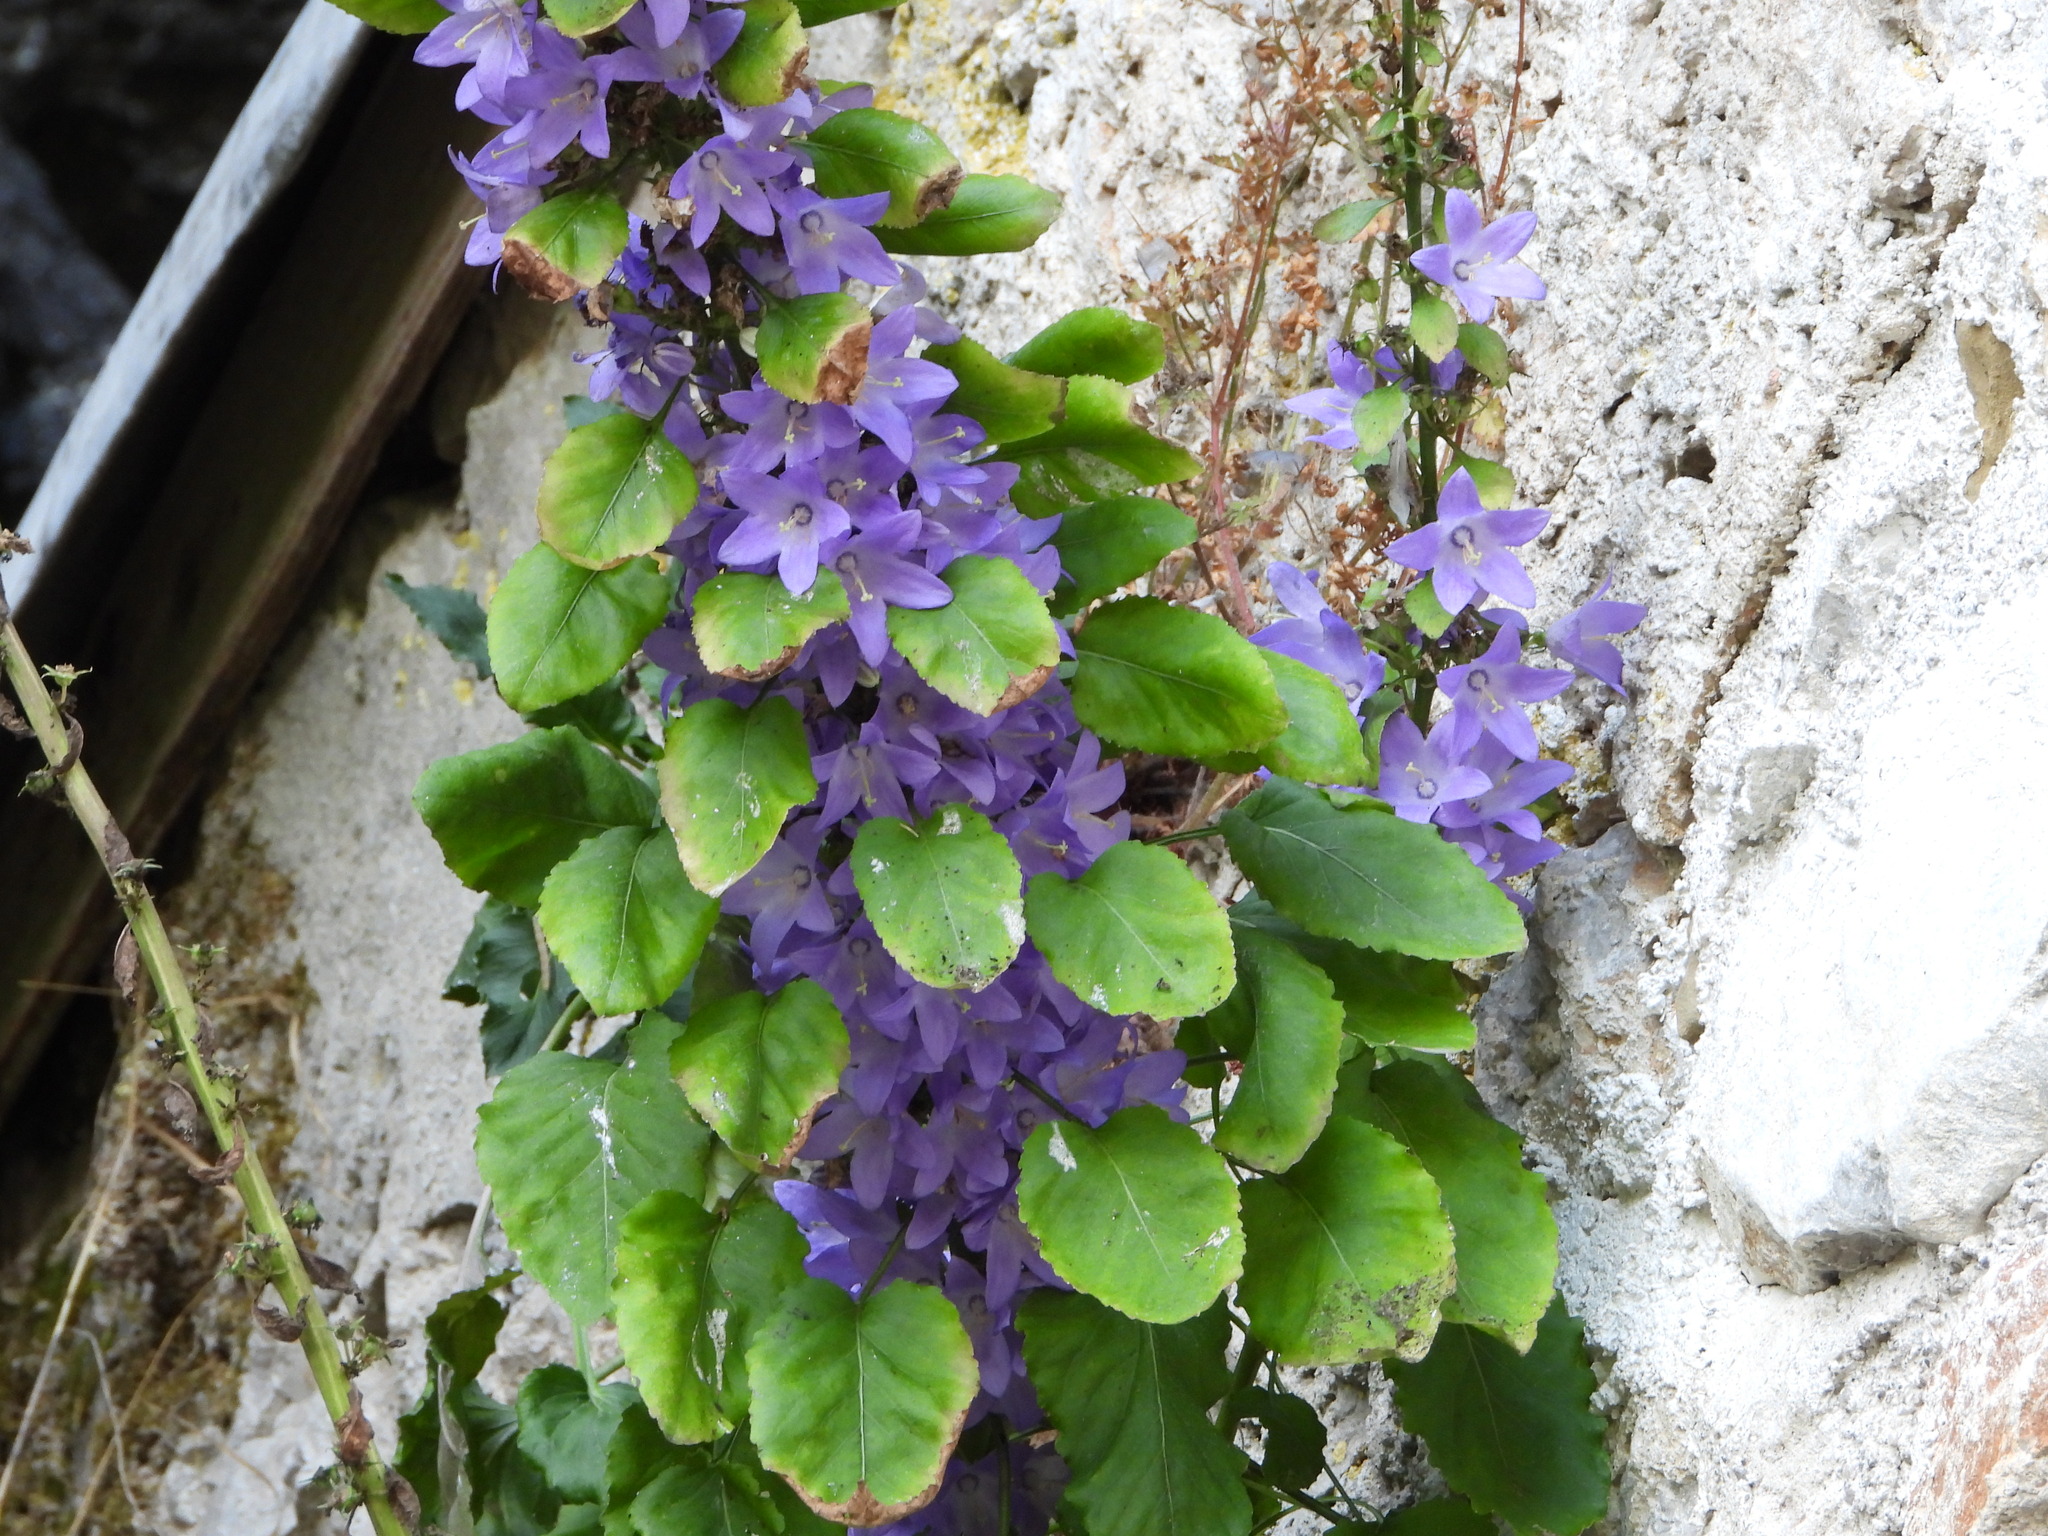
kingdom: Plantae
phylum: Tracheophyta
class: Magnoliopsida
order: Asterales
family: Campanulaceae
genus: Campanula
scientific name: Campanula pyramidalis
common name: Chimney bellflower
